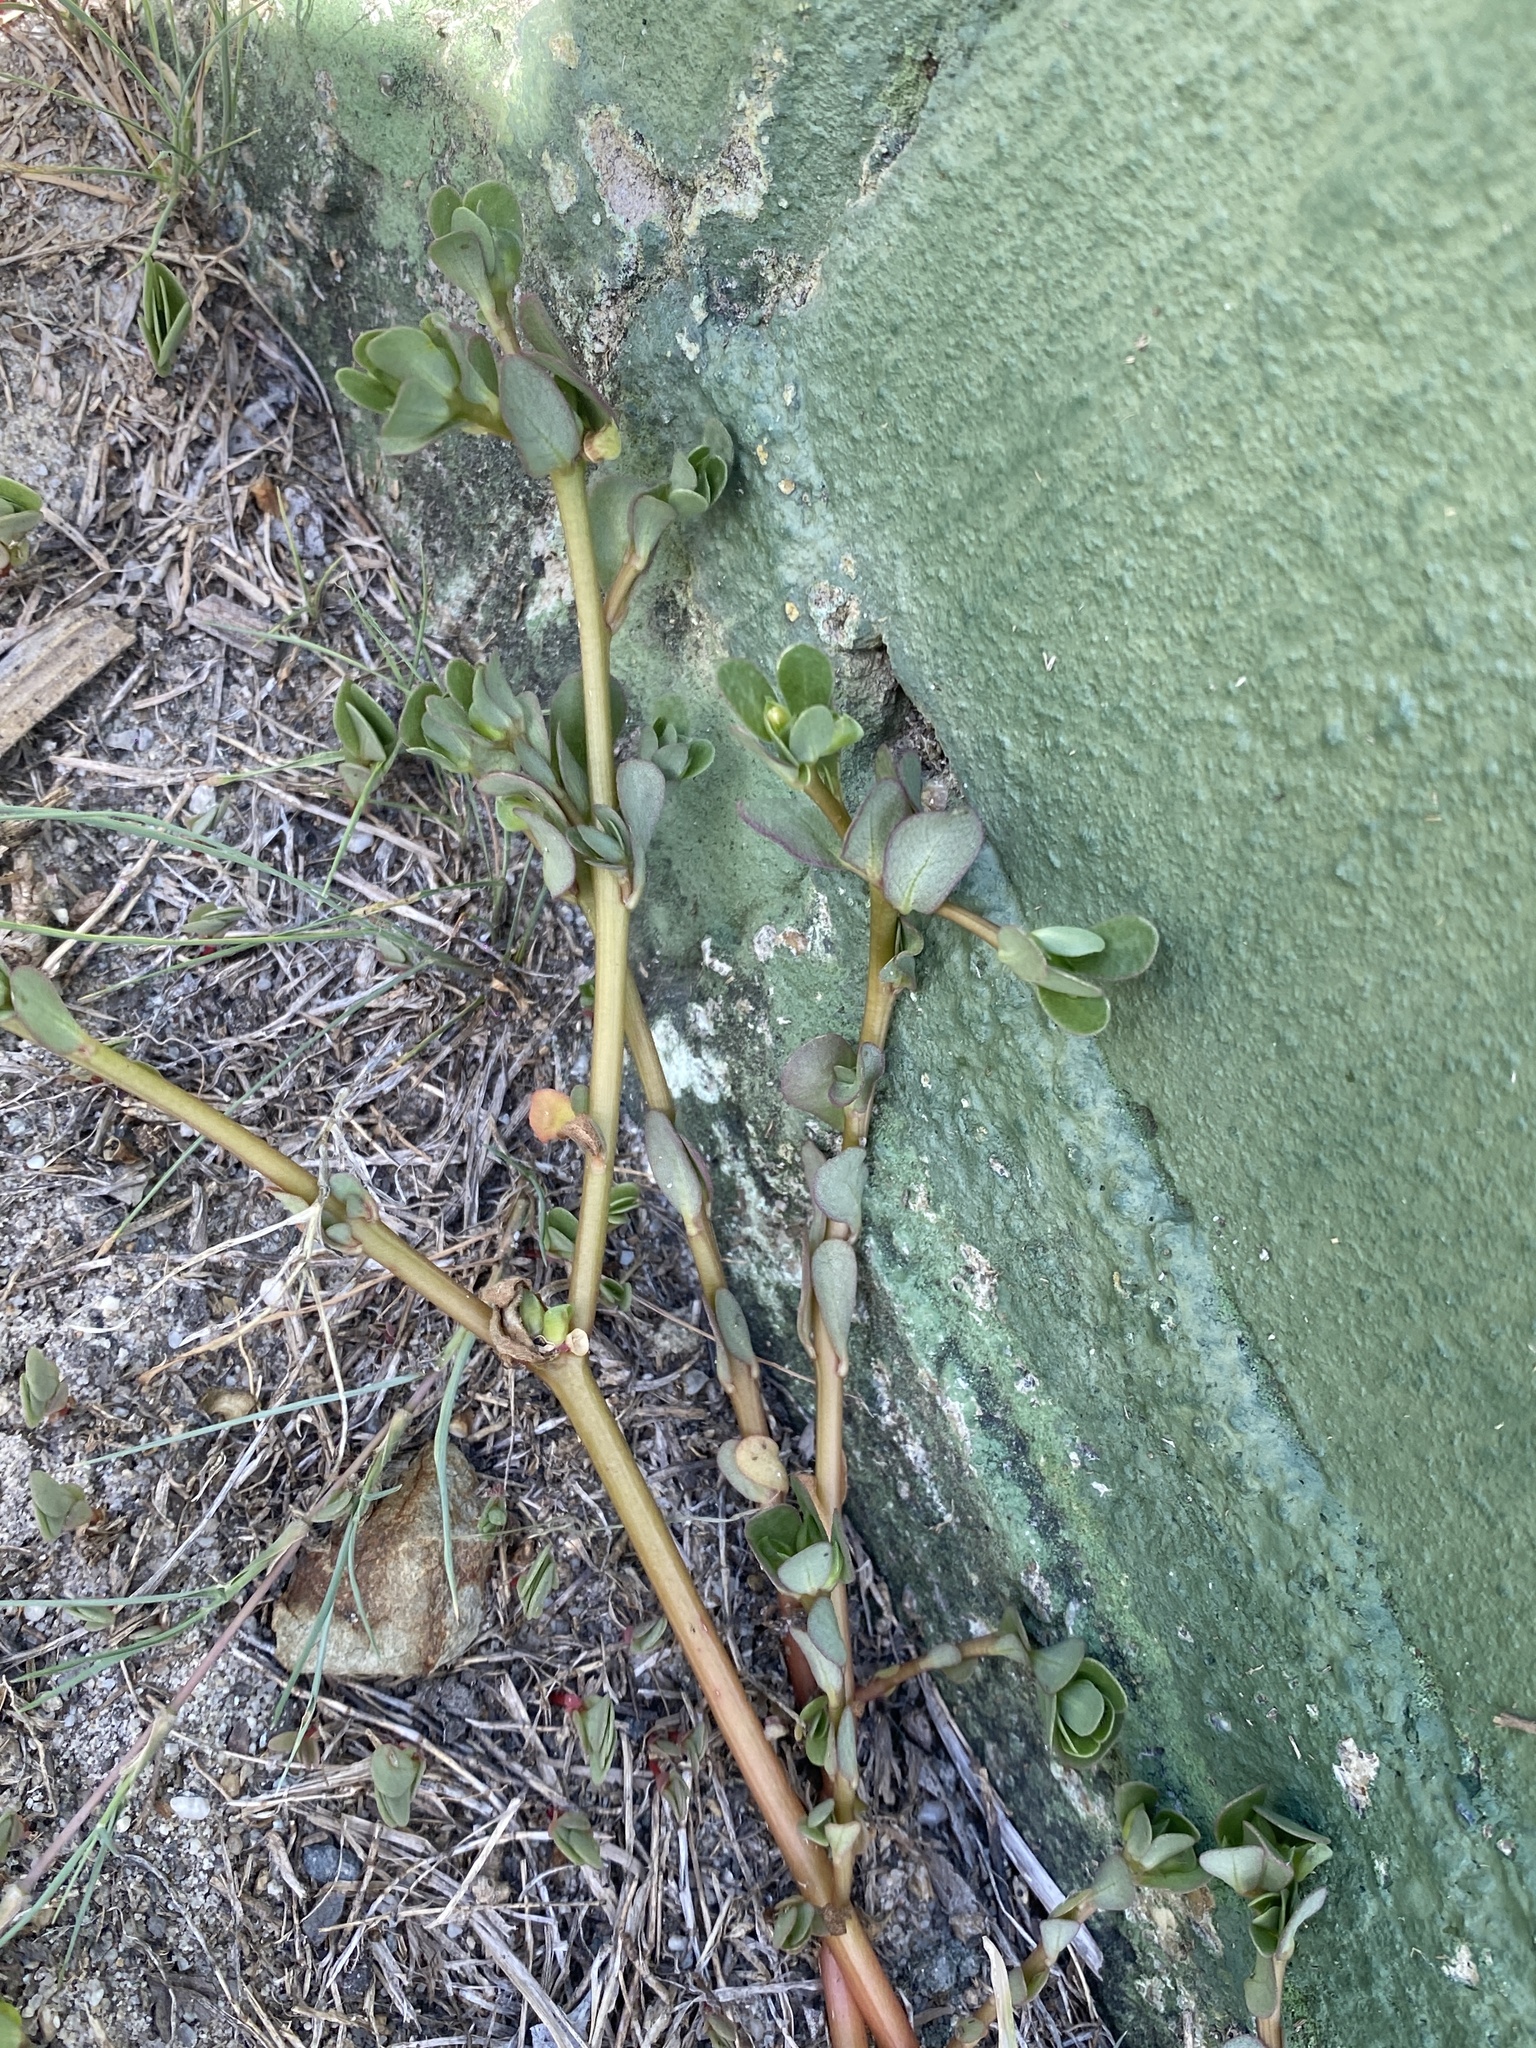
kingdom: Plantae
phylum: Tracheophyta
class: Magnoliopsida
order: Caryophyllales
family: Portulacaceae
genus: Portulaca
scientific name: Portulaca oleracea
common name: Common purslane
